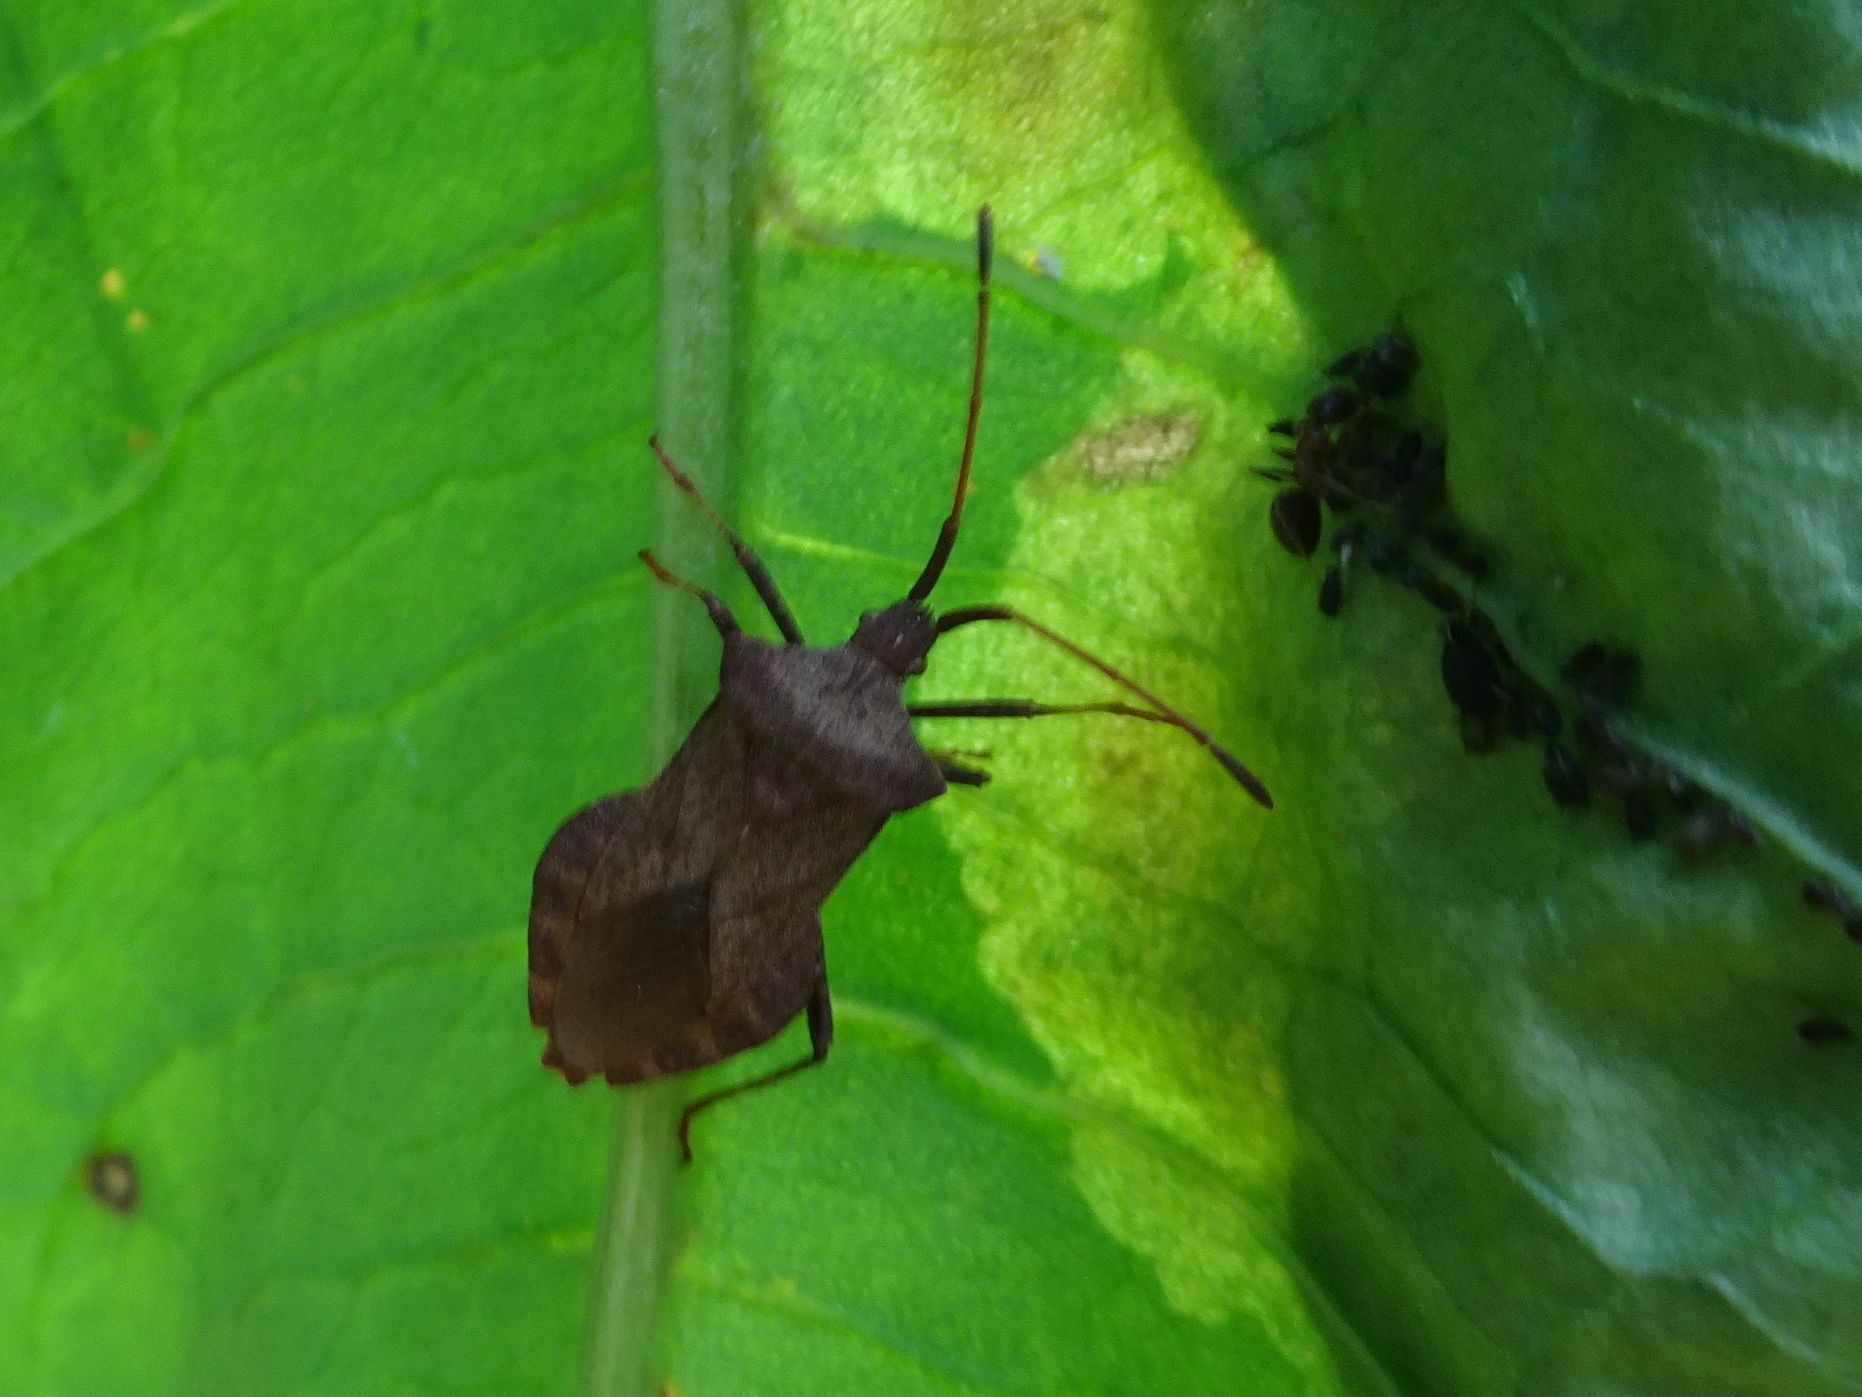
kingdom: Animalia
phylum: Arthropoda
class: Insecta
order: Hemiptera
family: Coreidae
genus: Coreus
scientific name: Coreus marginatus
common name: Dock bug
